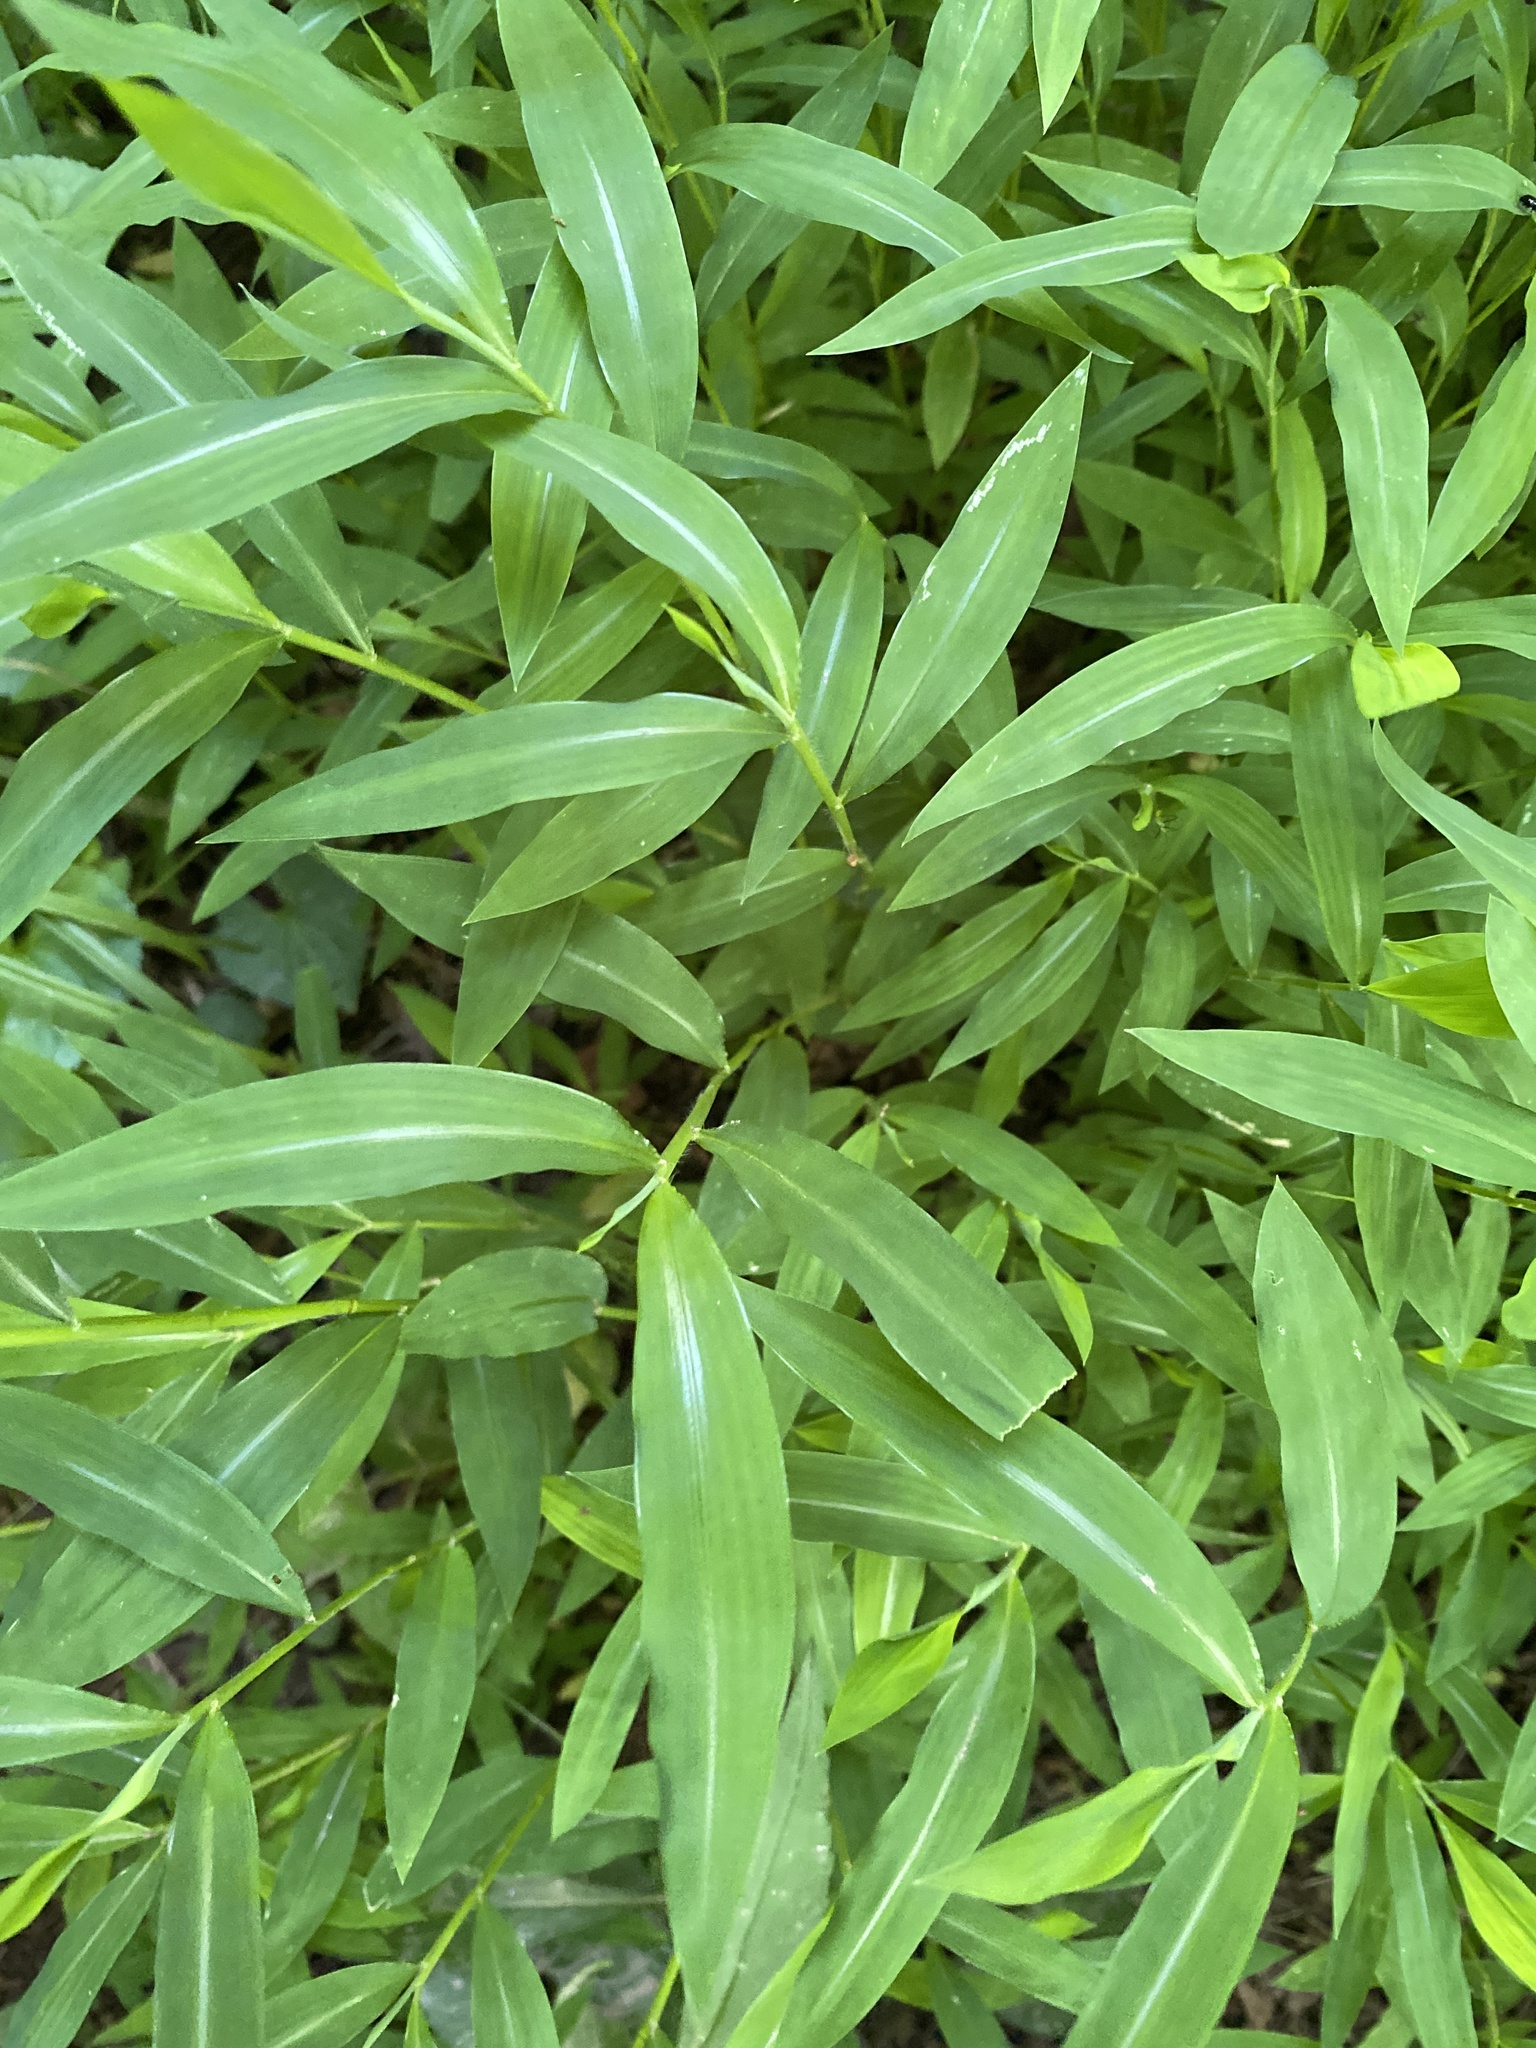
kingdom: Plantae
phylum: Tracheophyta
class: Liliopsida
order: Poales
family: Poaceae
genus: Microstegium
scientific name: Microstegium vimineum
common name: Japanese stiltgrass
